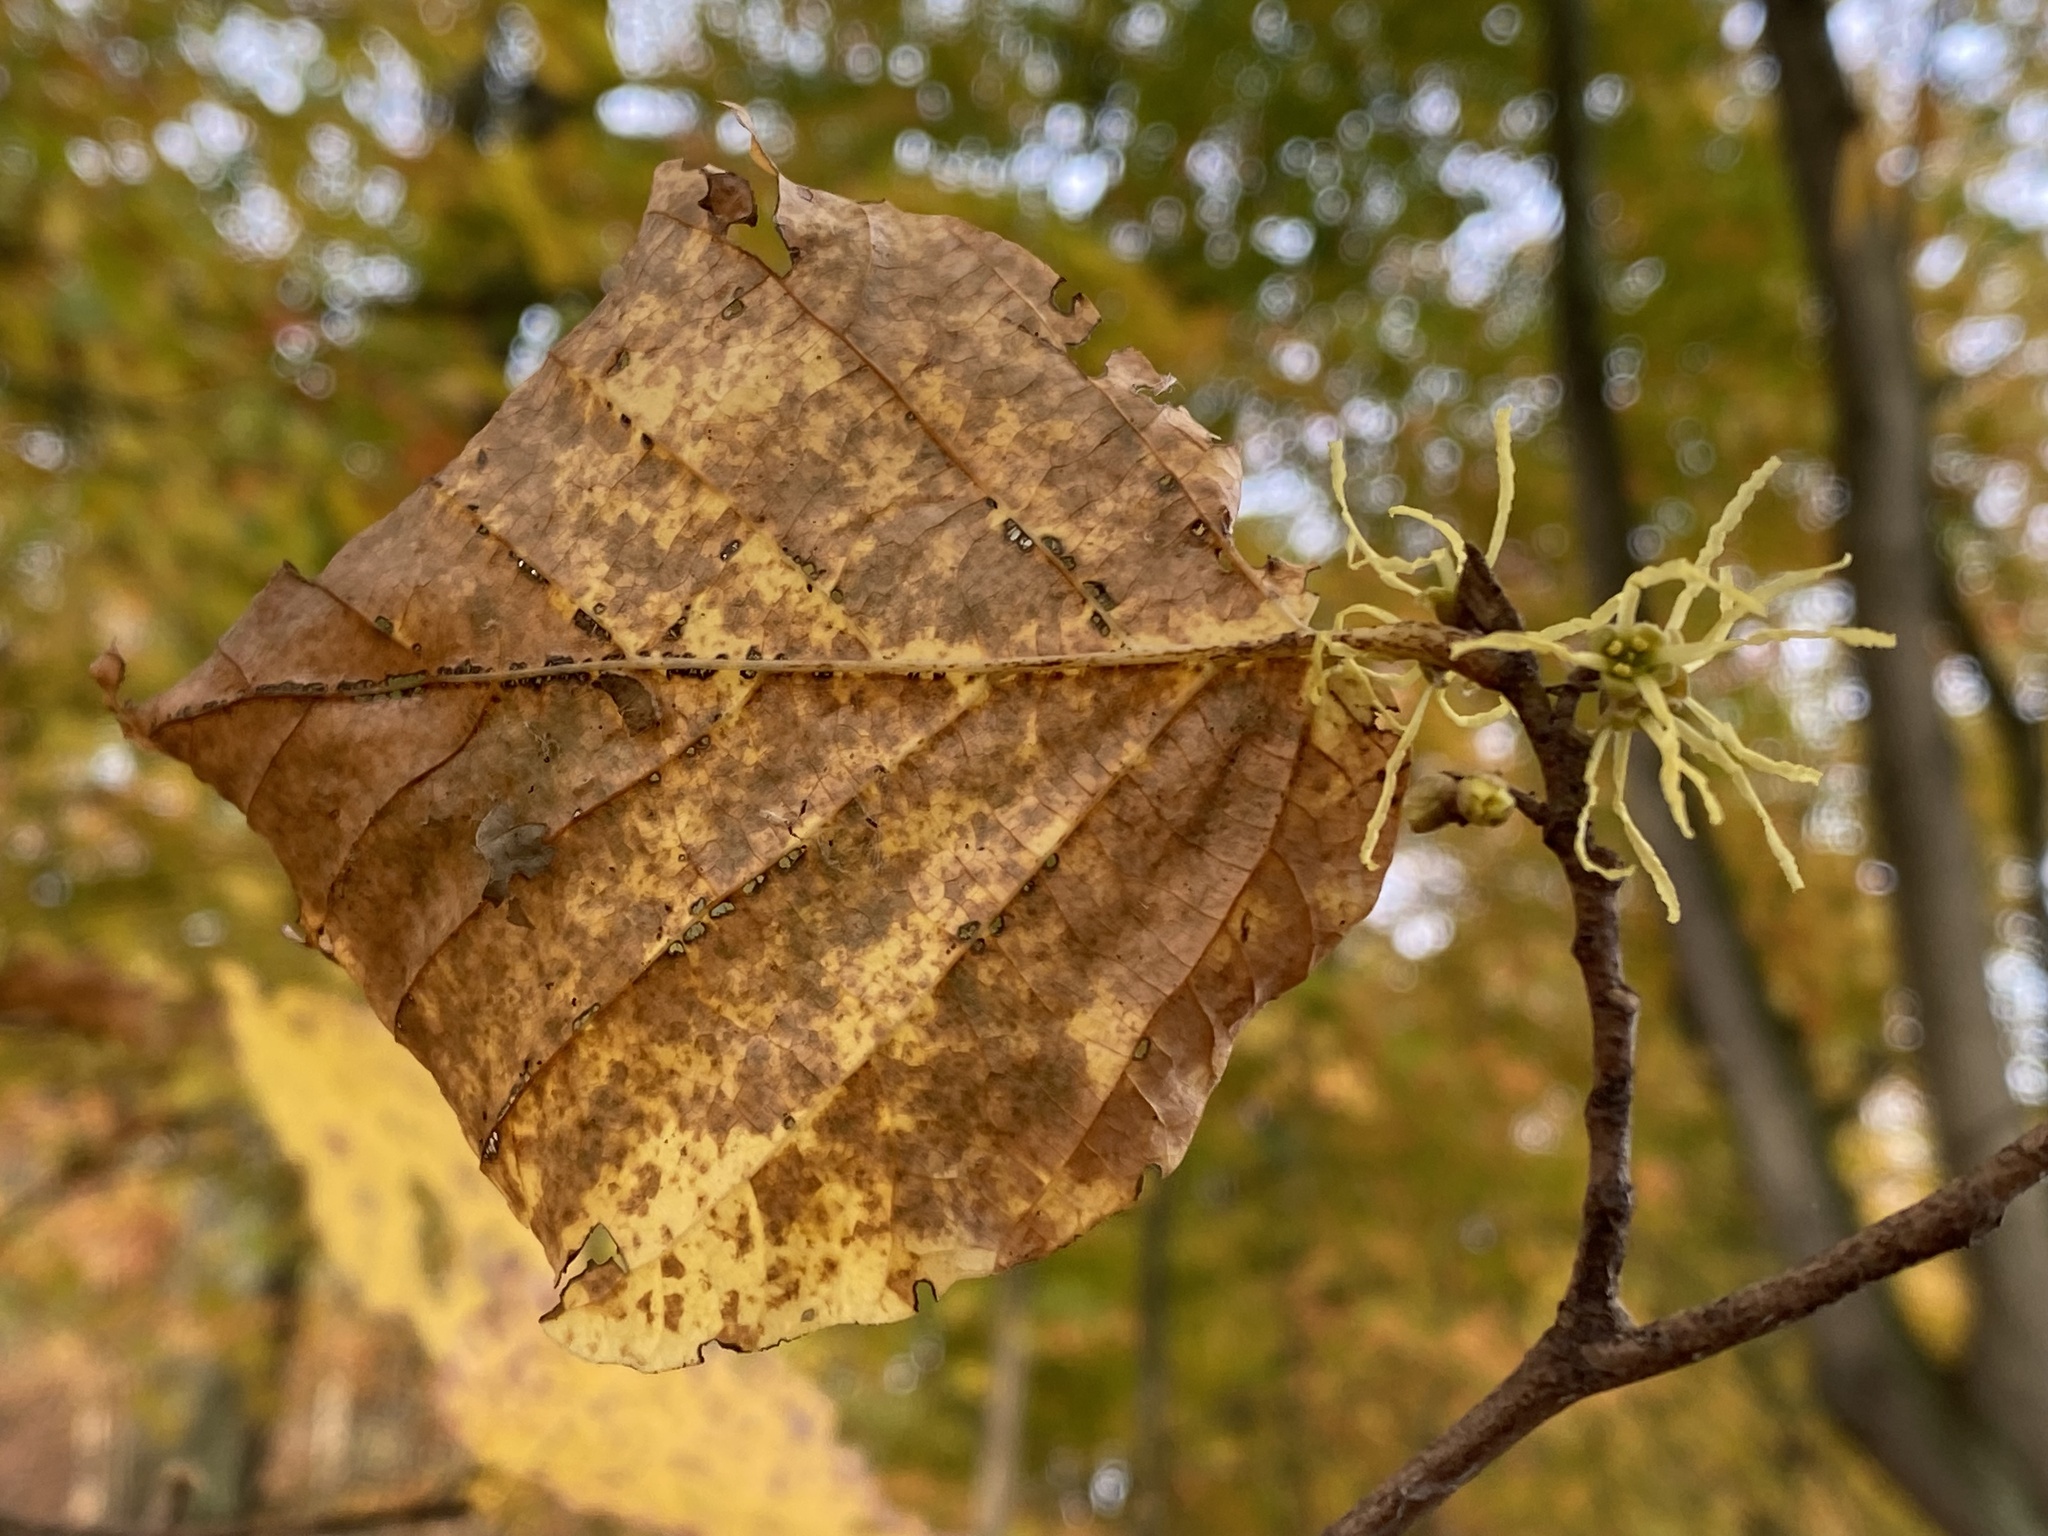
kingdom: Plantae
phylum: Tracheophyta
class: Magnoliopsida
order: Saxifragales
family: Hamamelidaceae
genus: Hamamelis
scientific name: Hamamelis virginiana
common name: Witch-hazel
